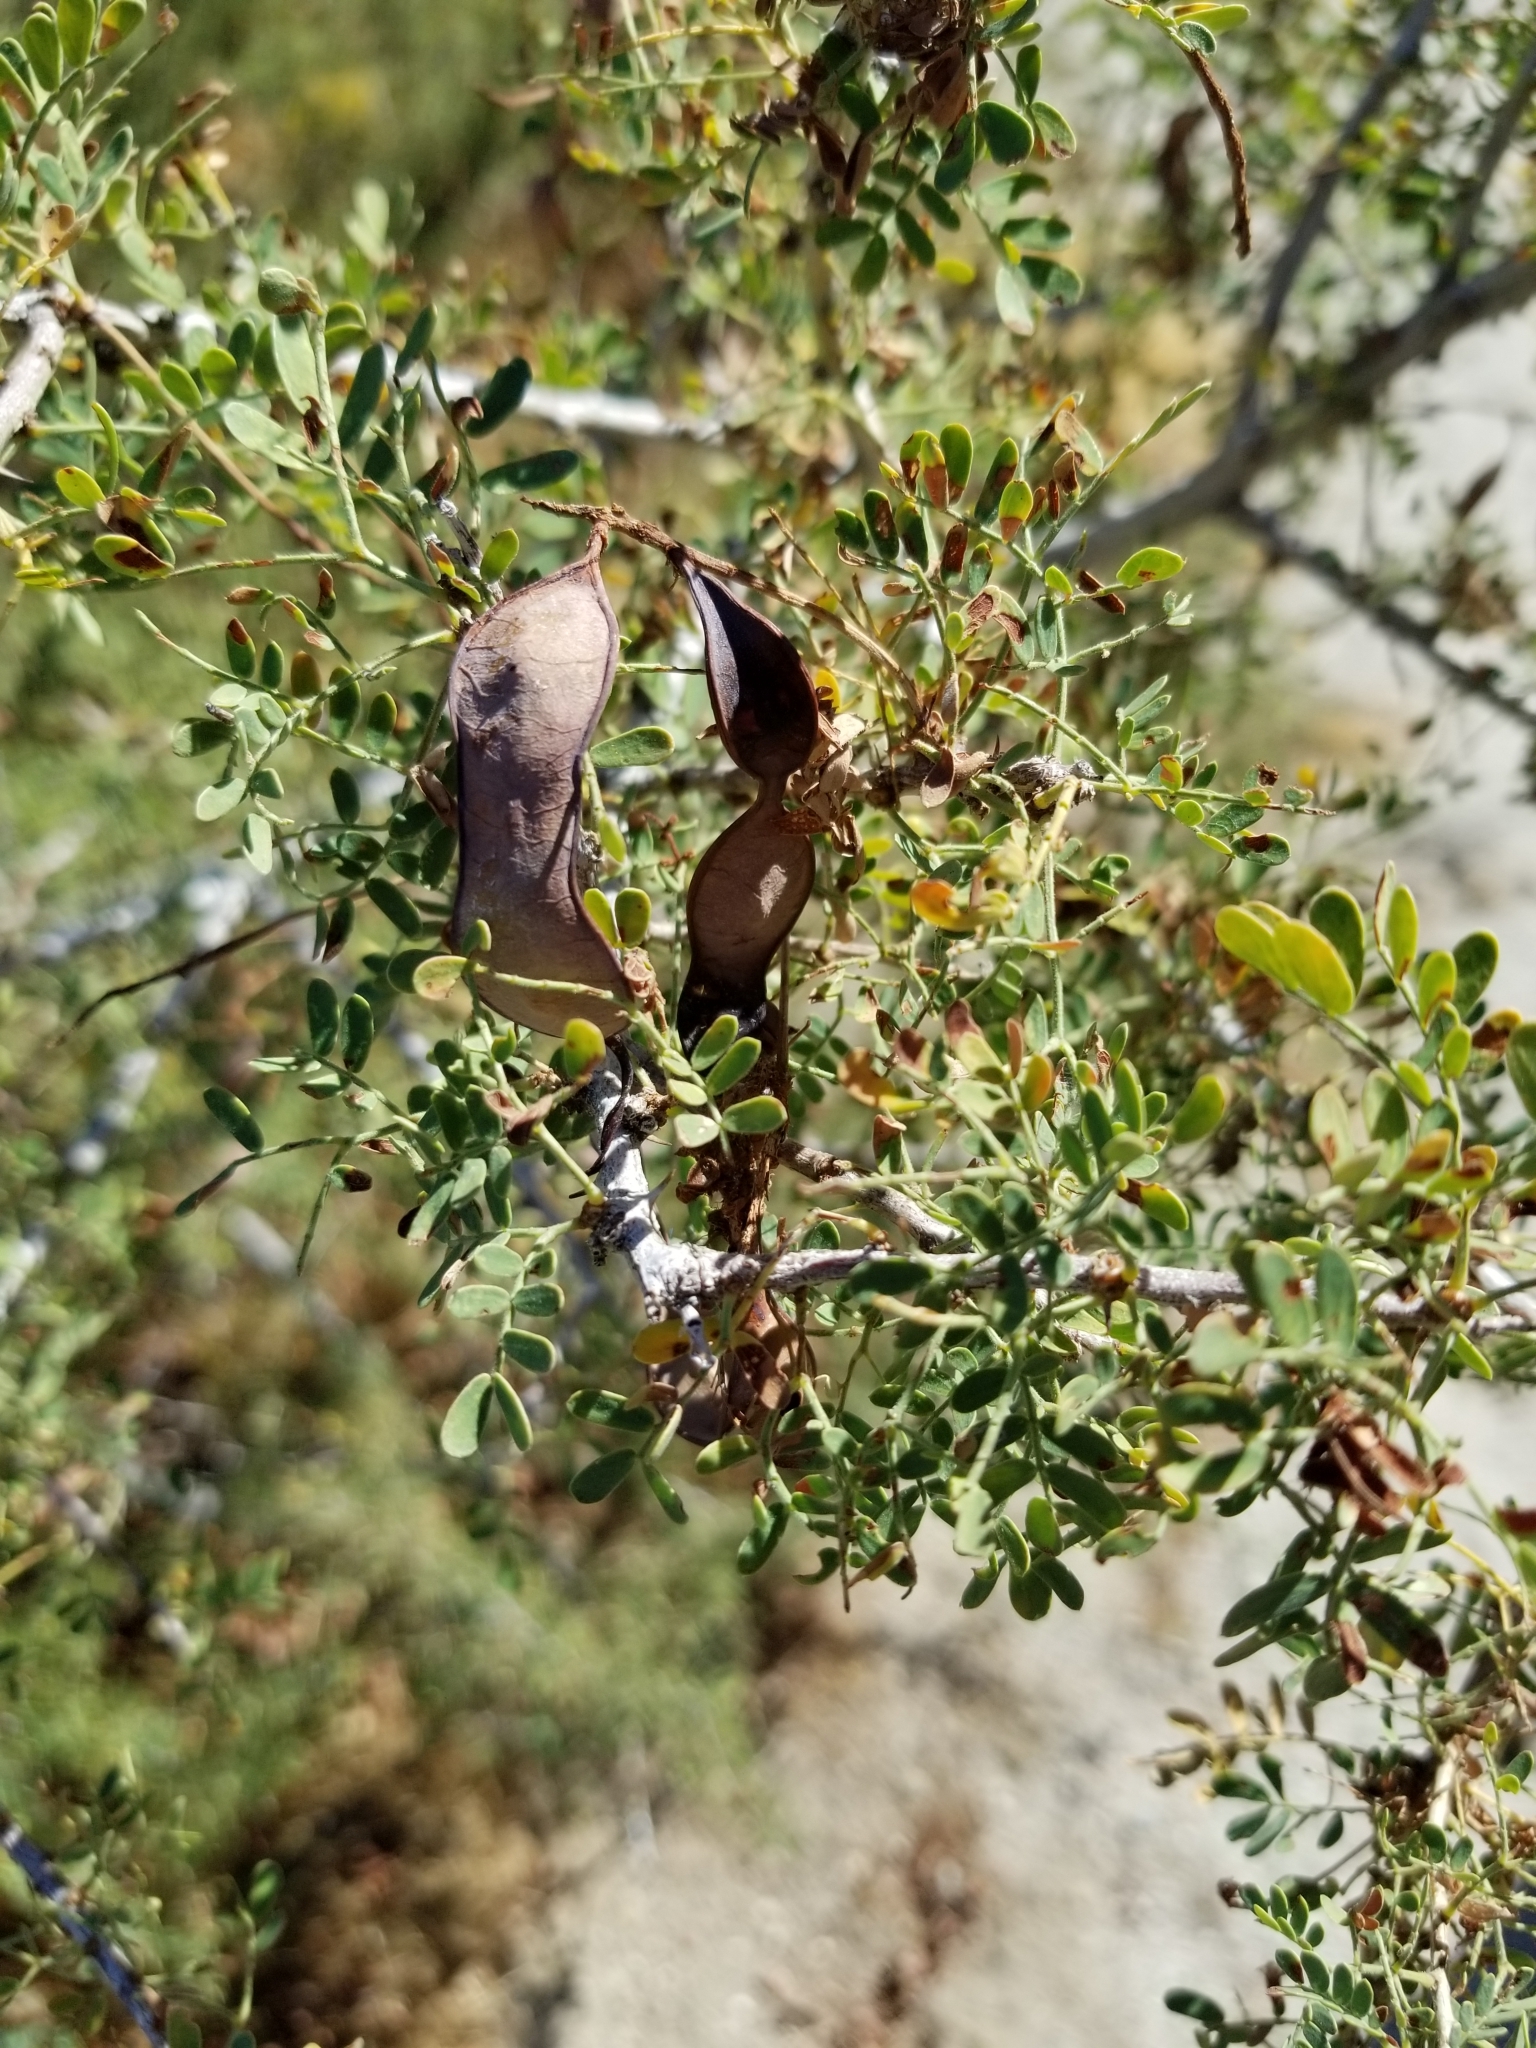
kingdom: Plantae
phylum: Tracheophyta
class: Magnoliopsida
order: Fabales
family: Fabaceae
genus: Senegalia
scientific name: Senegalia greggii
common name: Texas-mimosa
